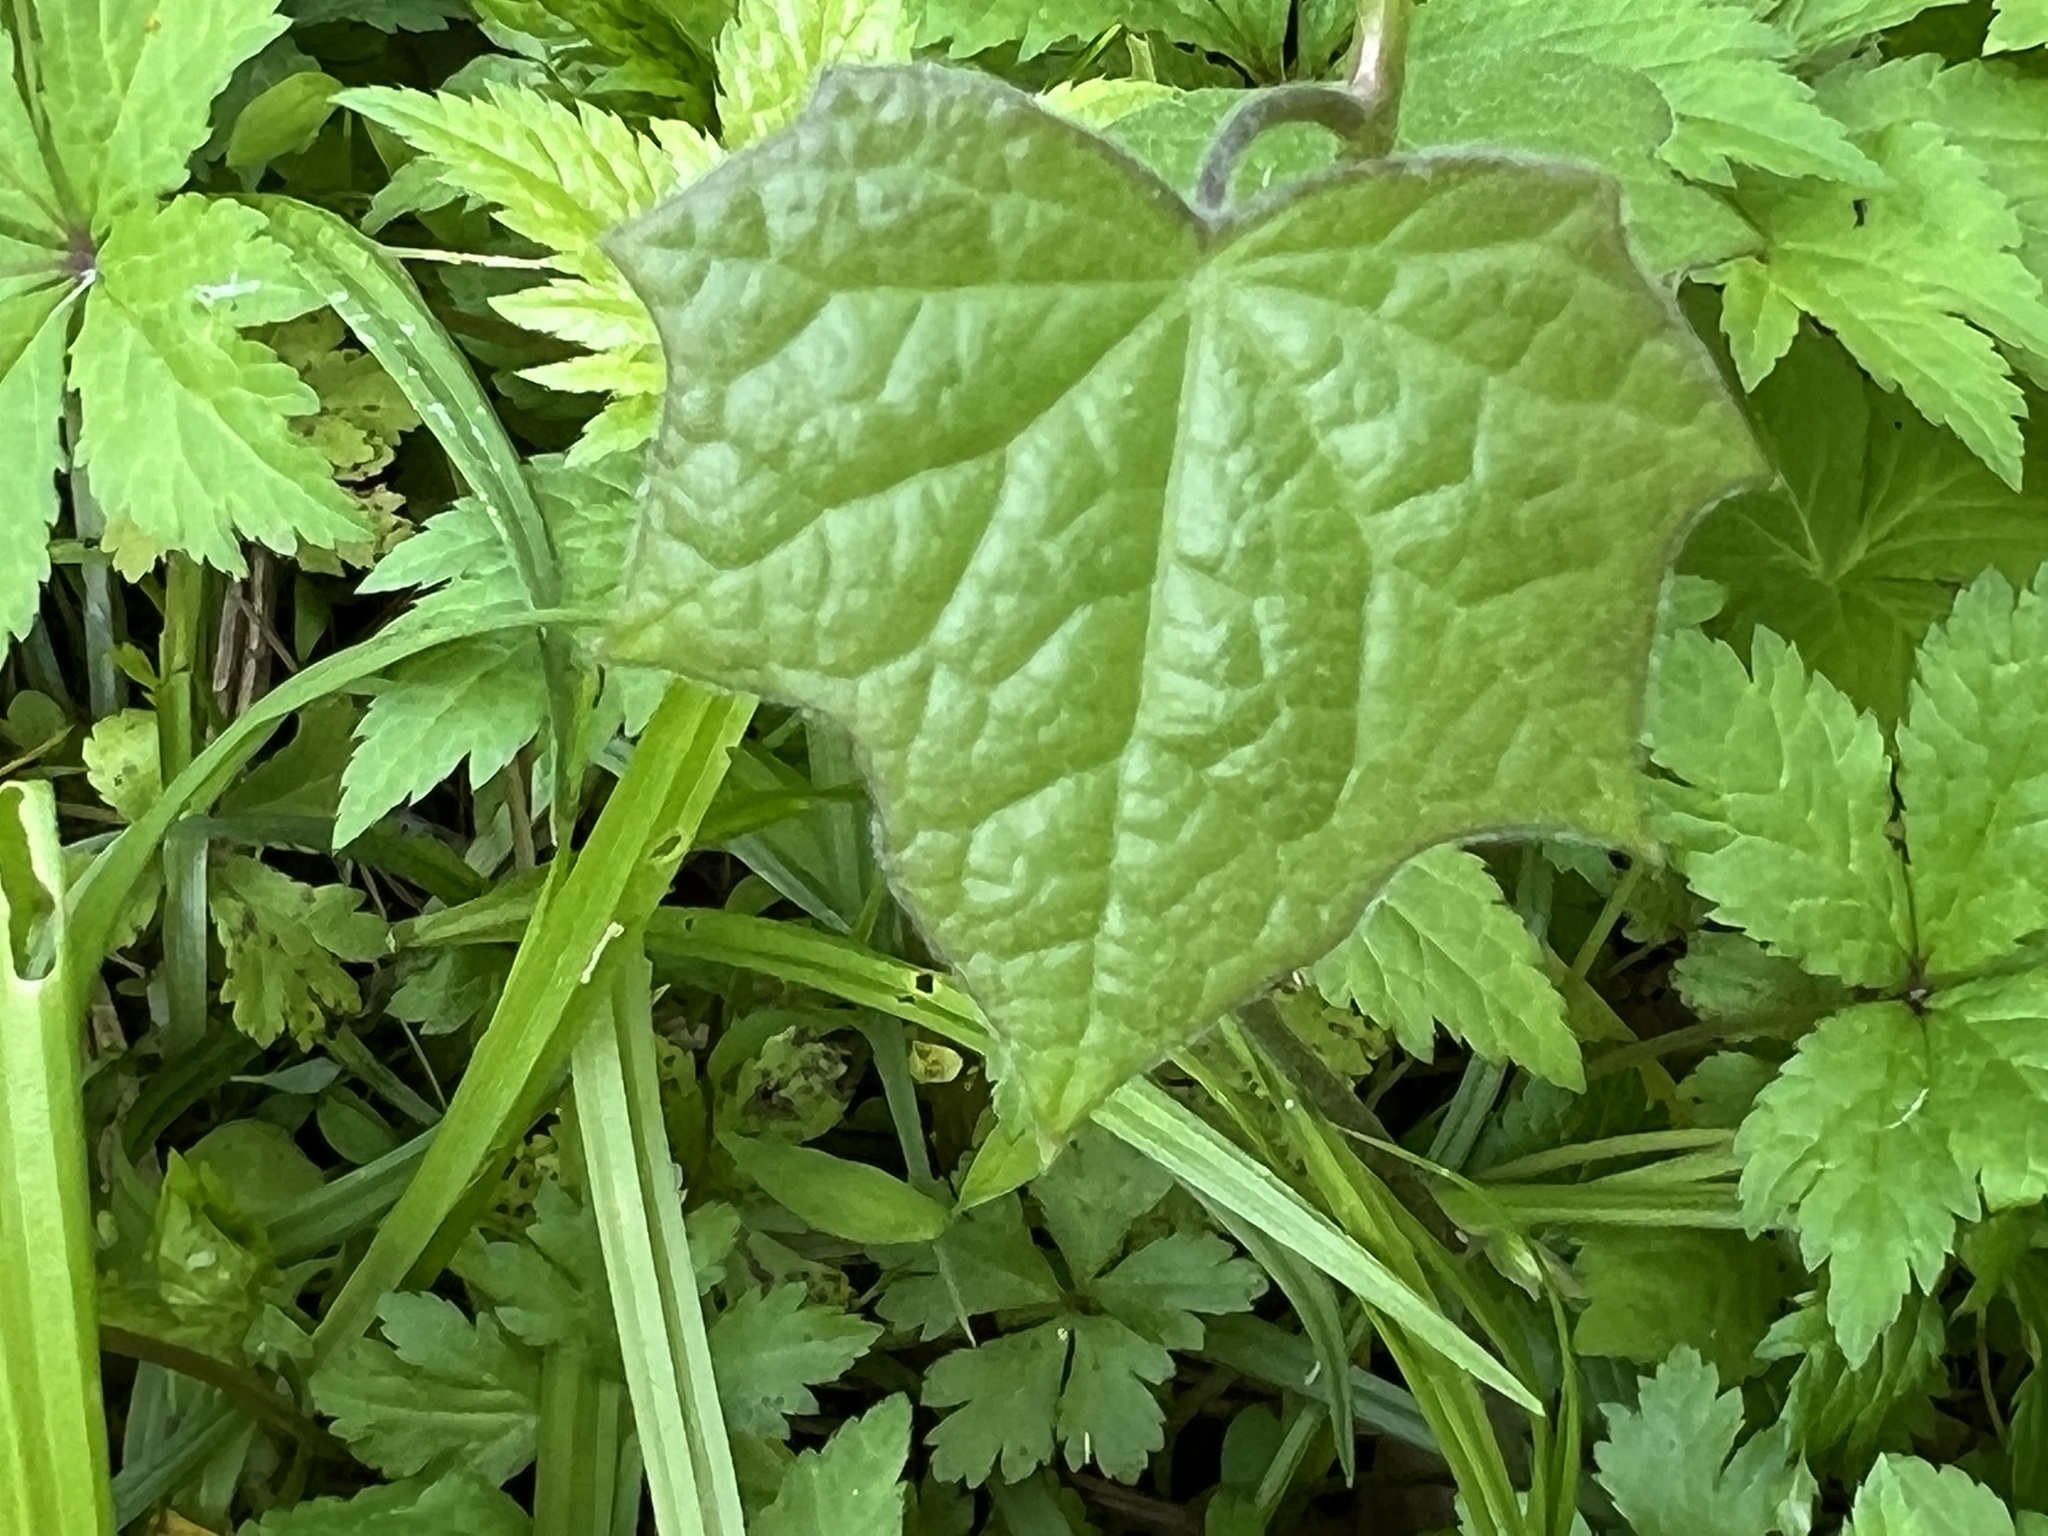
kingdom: Plantae
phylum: Tracheophyta
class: Magnoliopsida
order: Ranunculales
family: Menispermaceae
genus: Menispermum
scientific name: Menispermum canadense
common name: Moonseed
